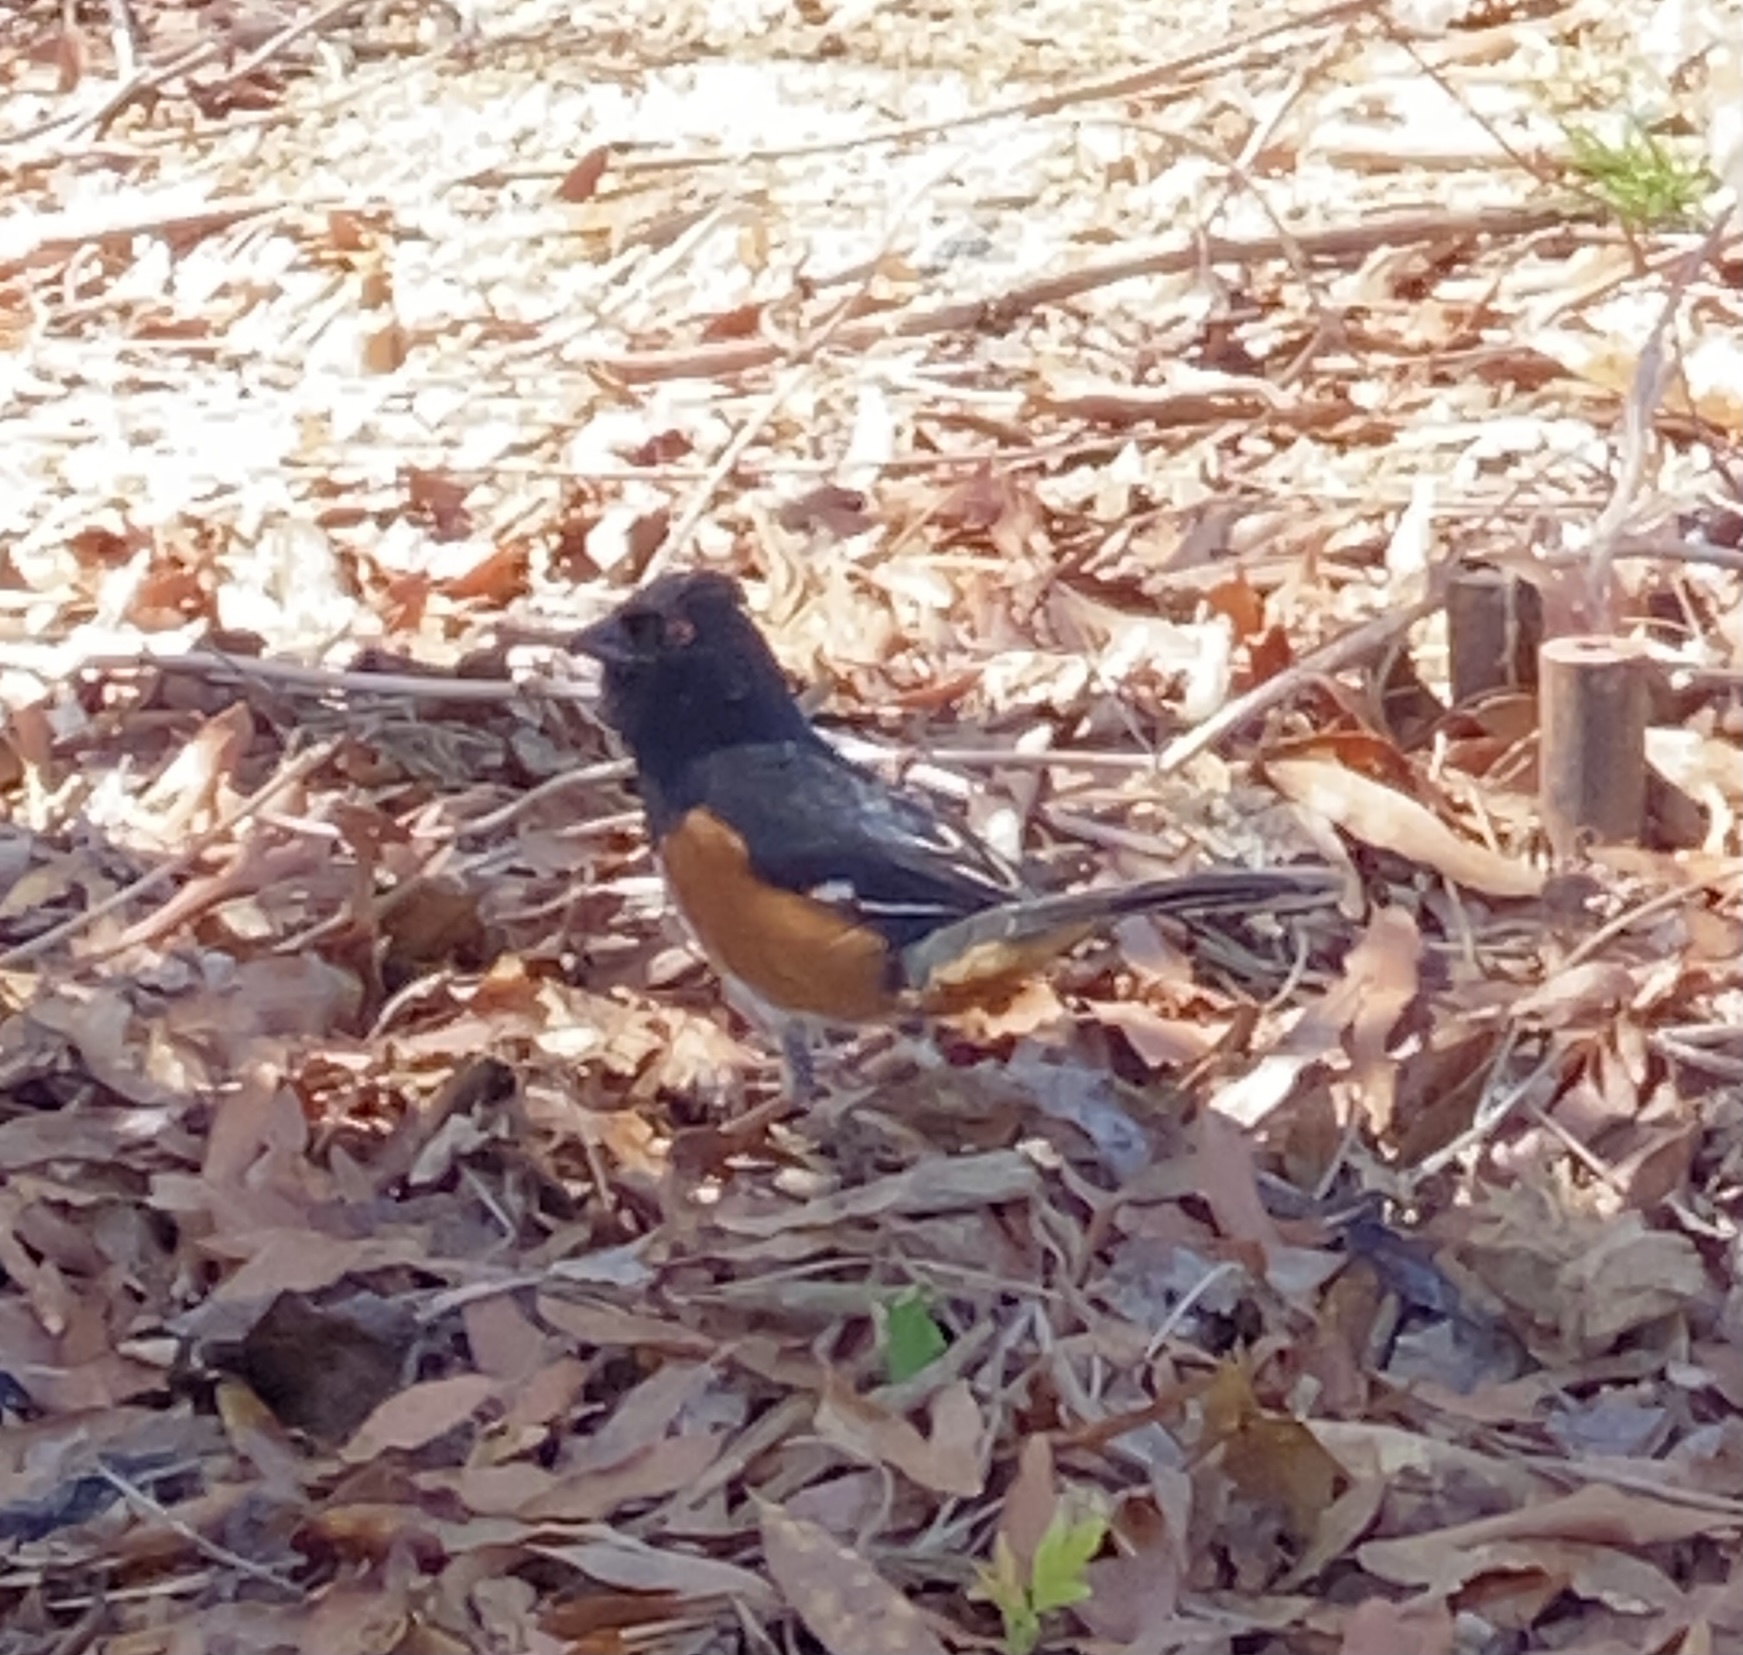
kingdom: Animalia
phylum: Chordata
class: Aves
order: Passeriformes
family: Passerellidae
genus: Pipilo
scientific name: Pipilo erythrophthalmus
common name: Eastern towhee
